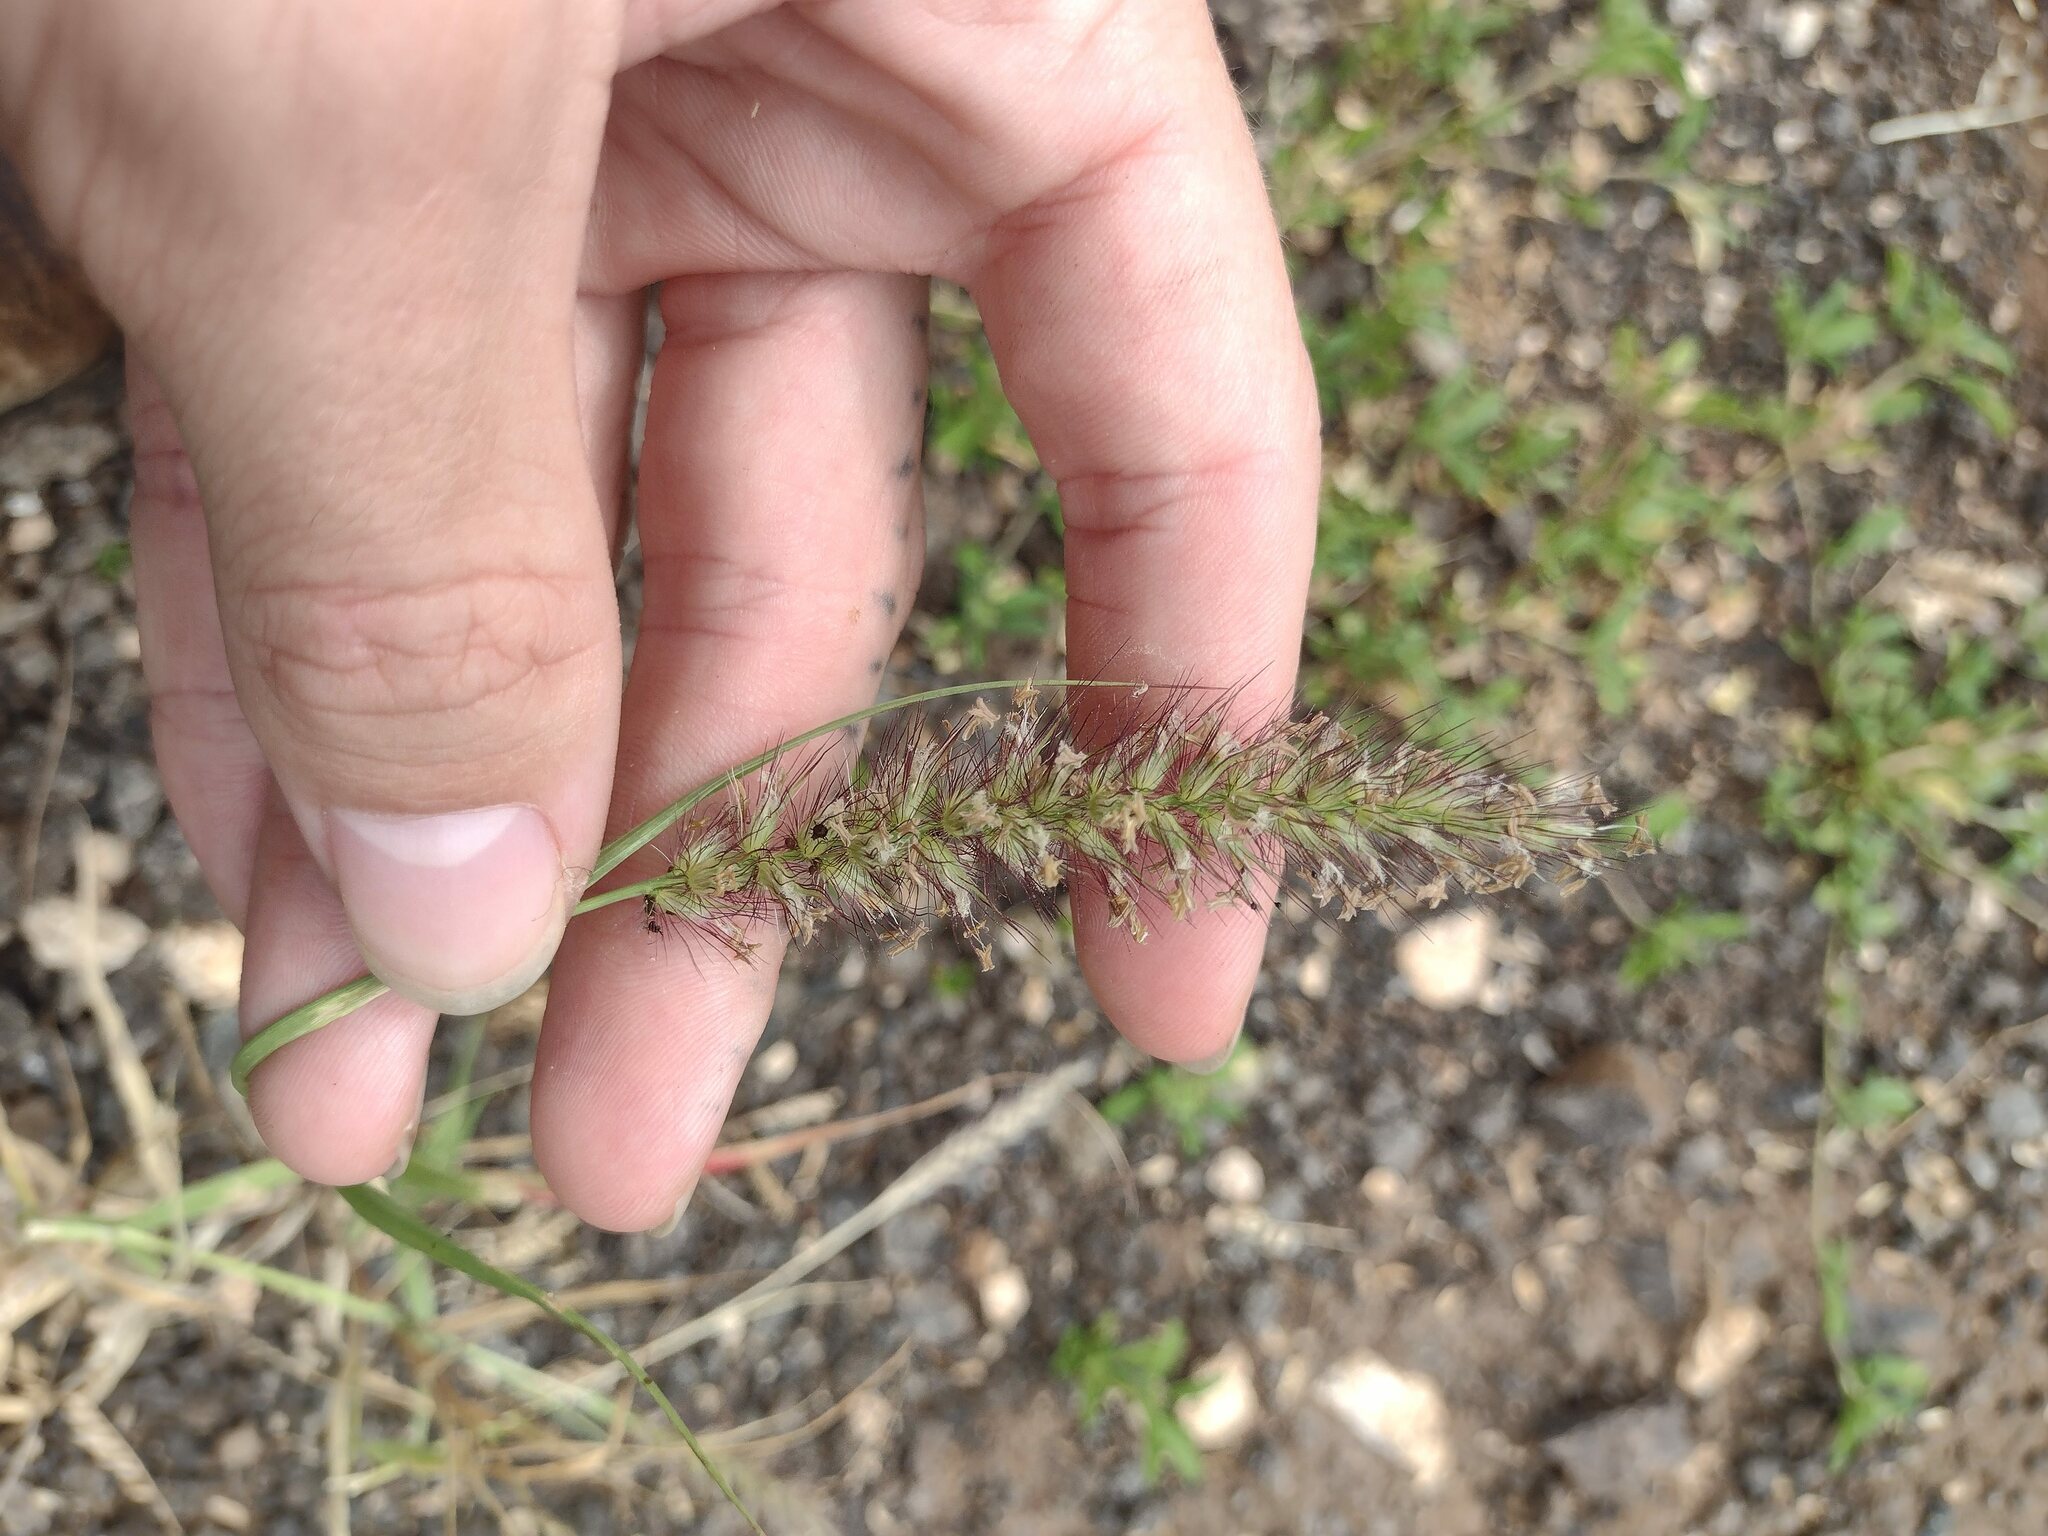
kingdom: Plantae
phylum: Tracheophyta
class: Liliopsida
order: Poales
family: Poaceae
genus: Cenchrus
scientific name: Cenchrus ciliaris
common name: Buffelgrass
